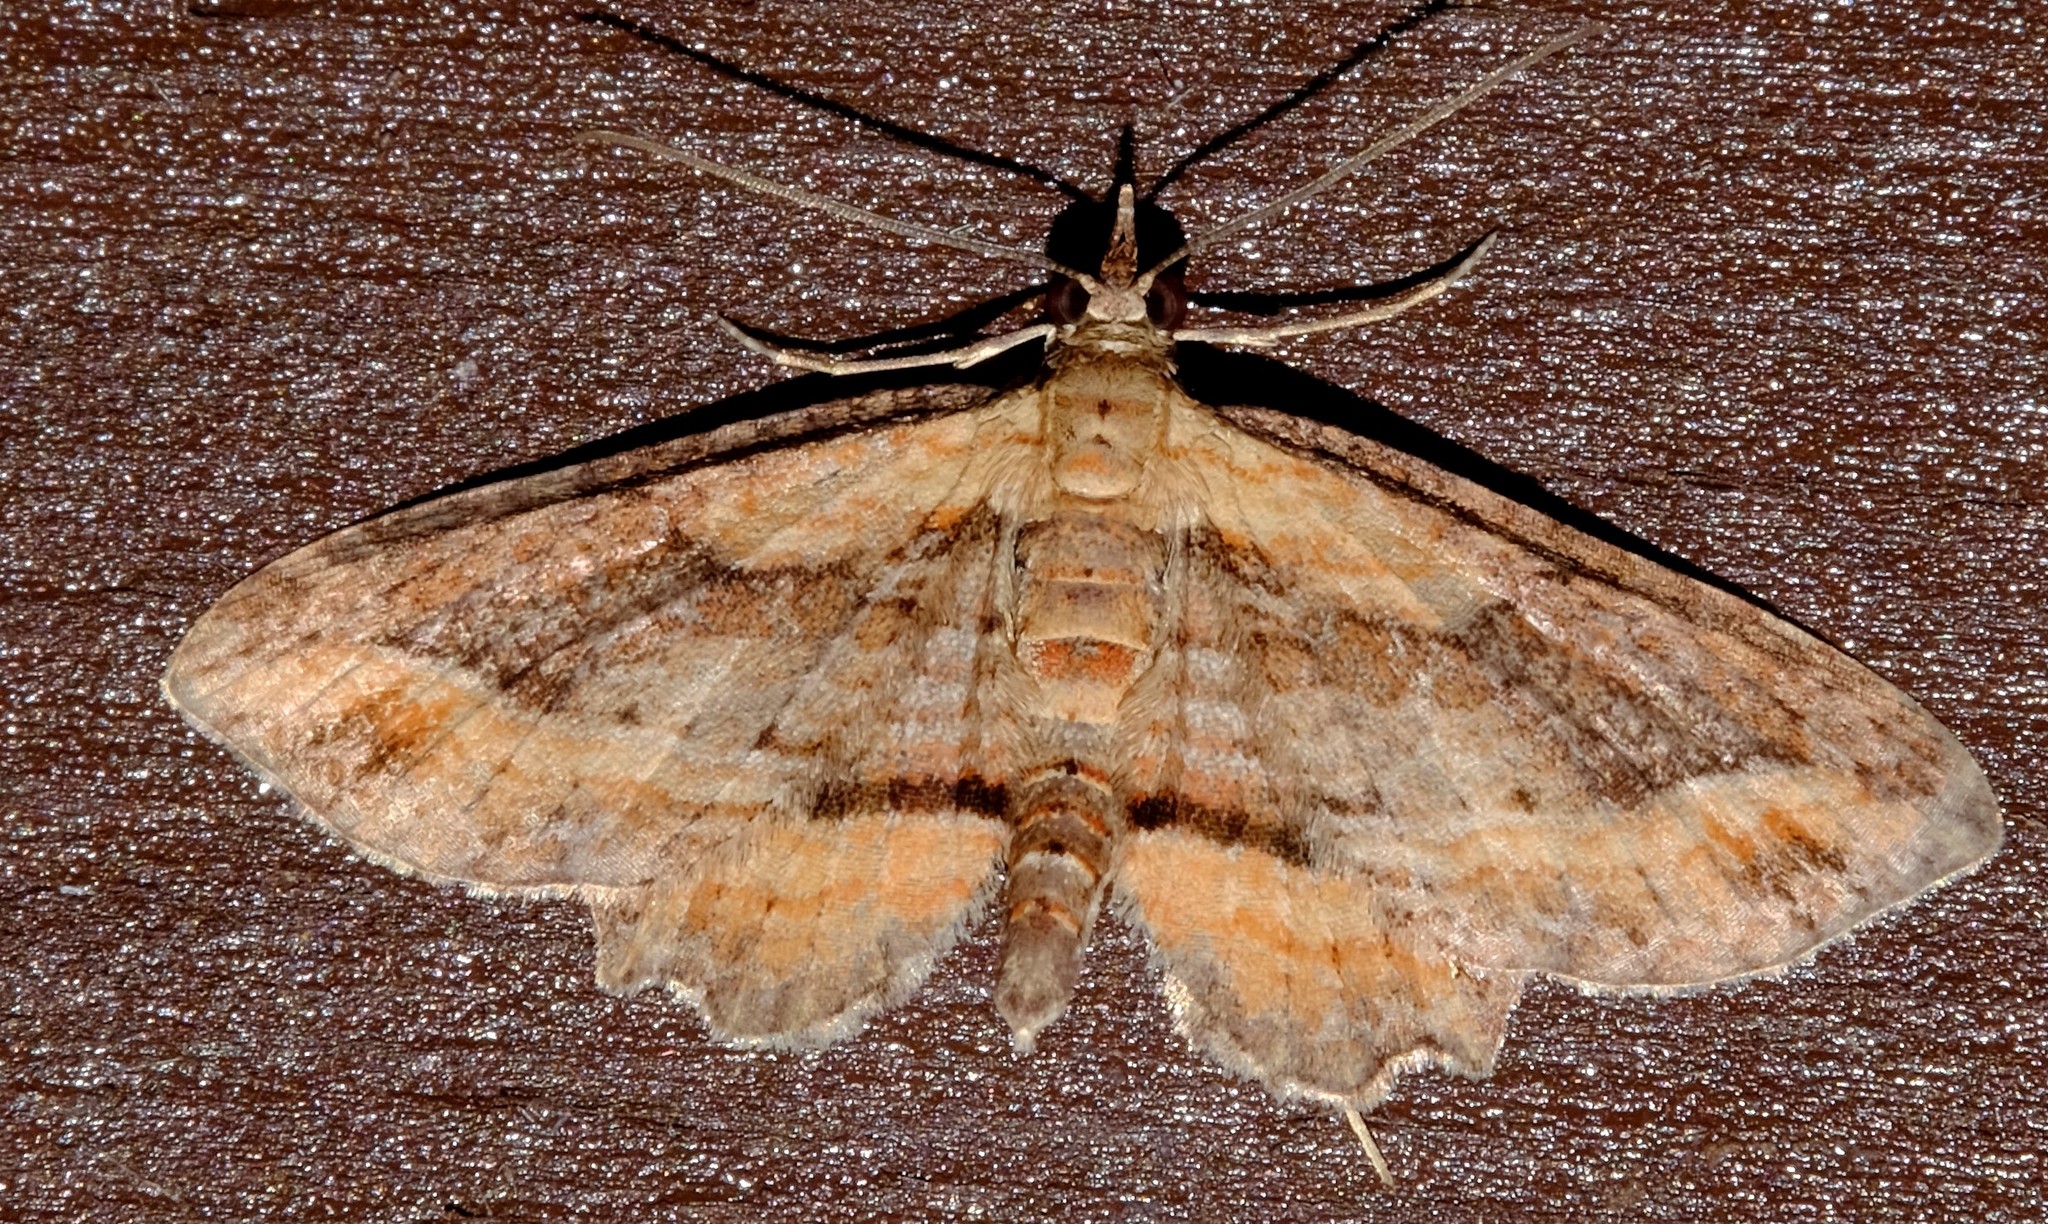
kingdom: Animalia
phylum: Arthropoda
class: Insecta
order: Lepidoptera
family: Geometridae
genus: Chloroclystis
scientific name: Chloroclystis filata
